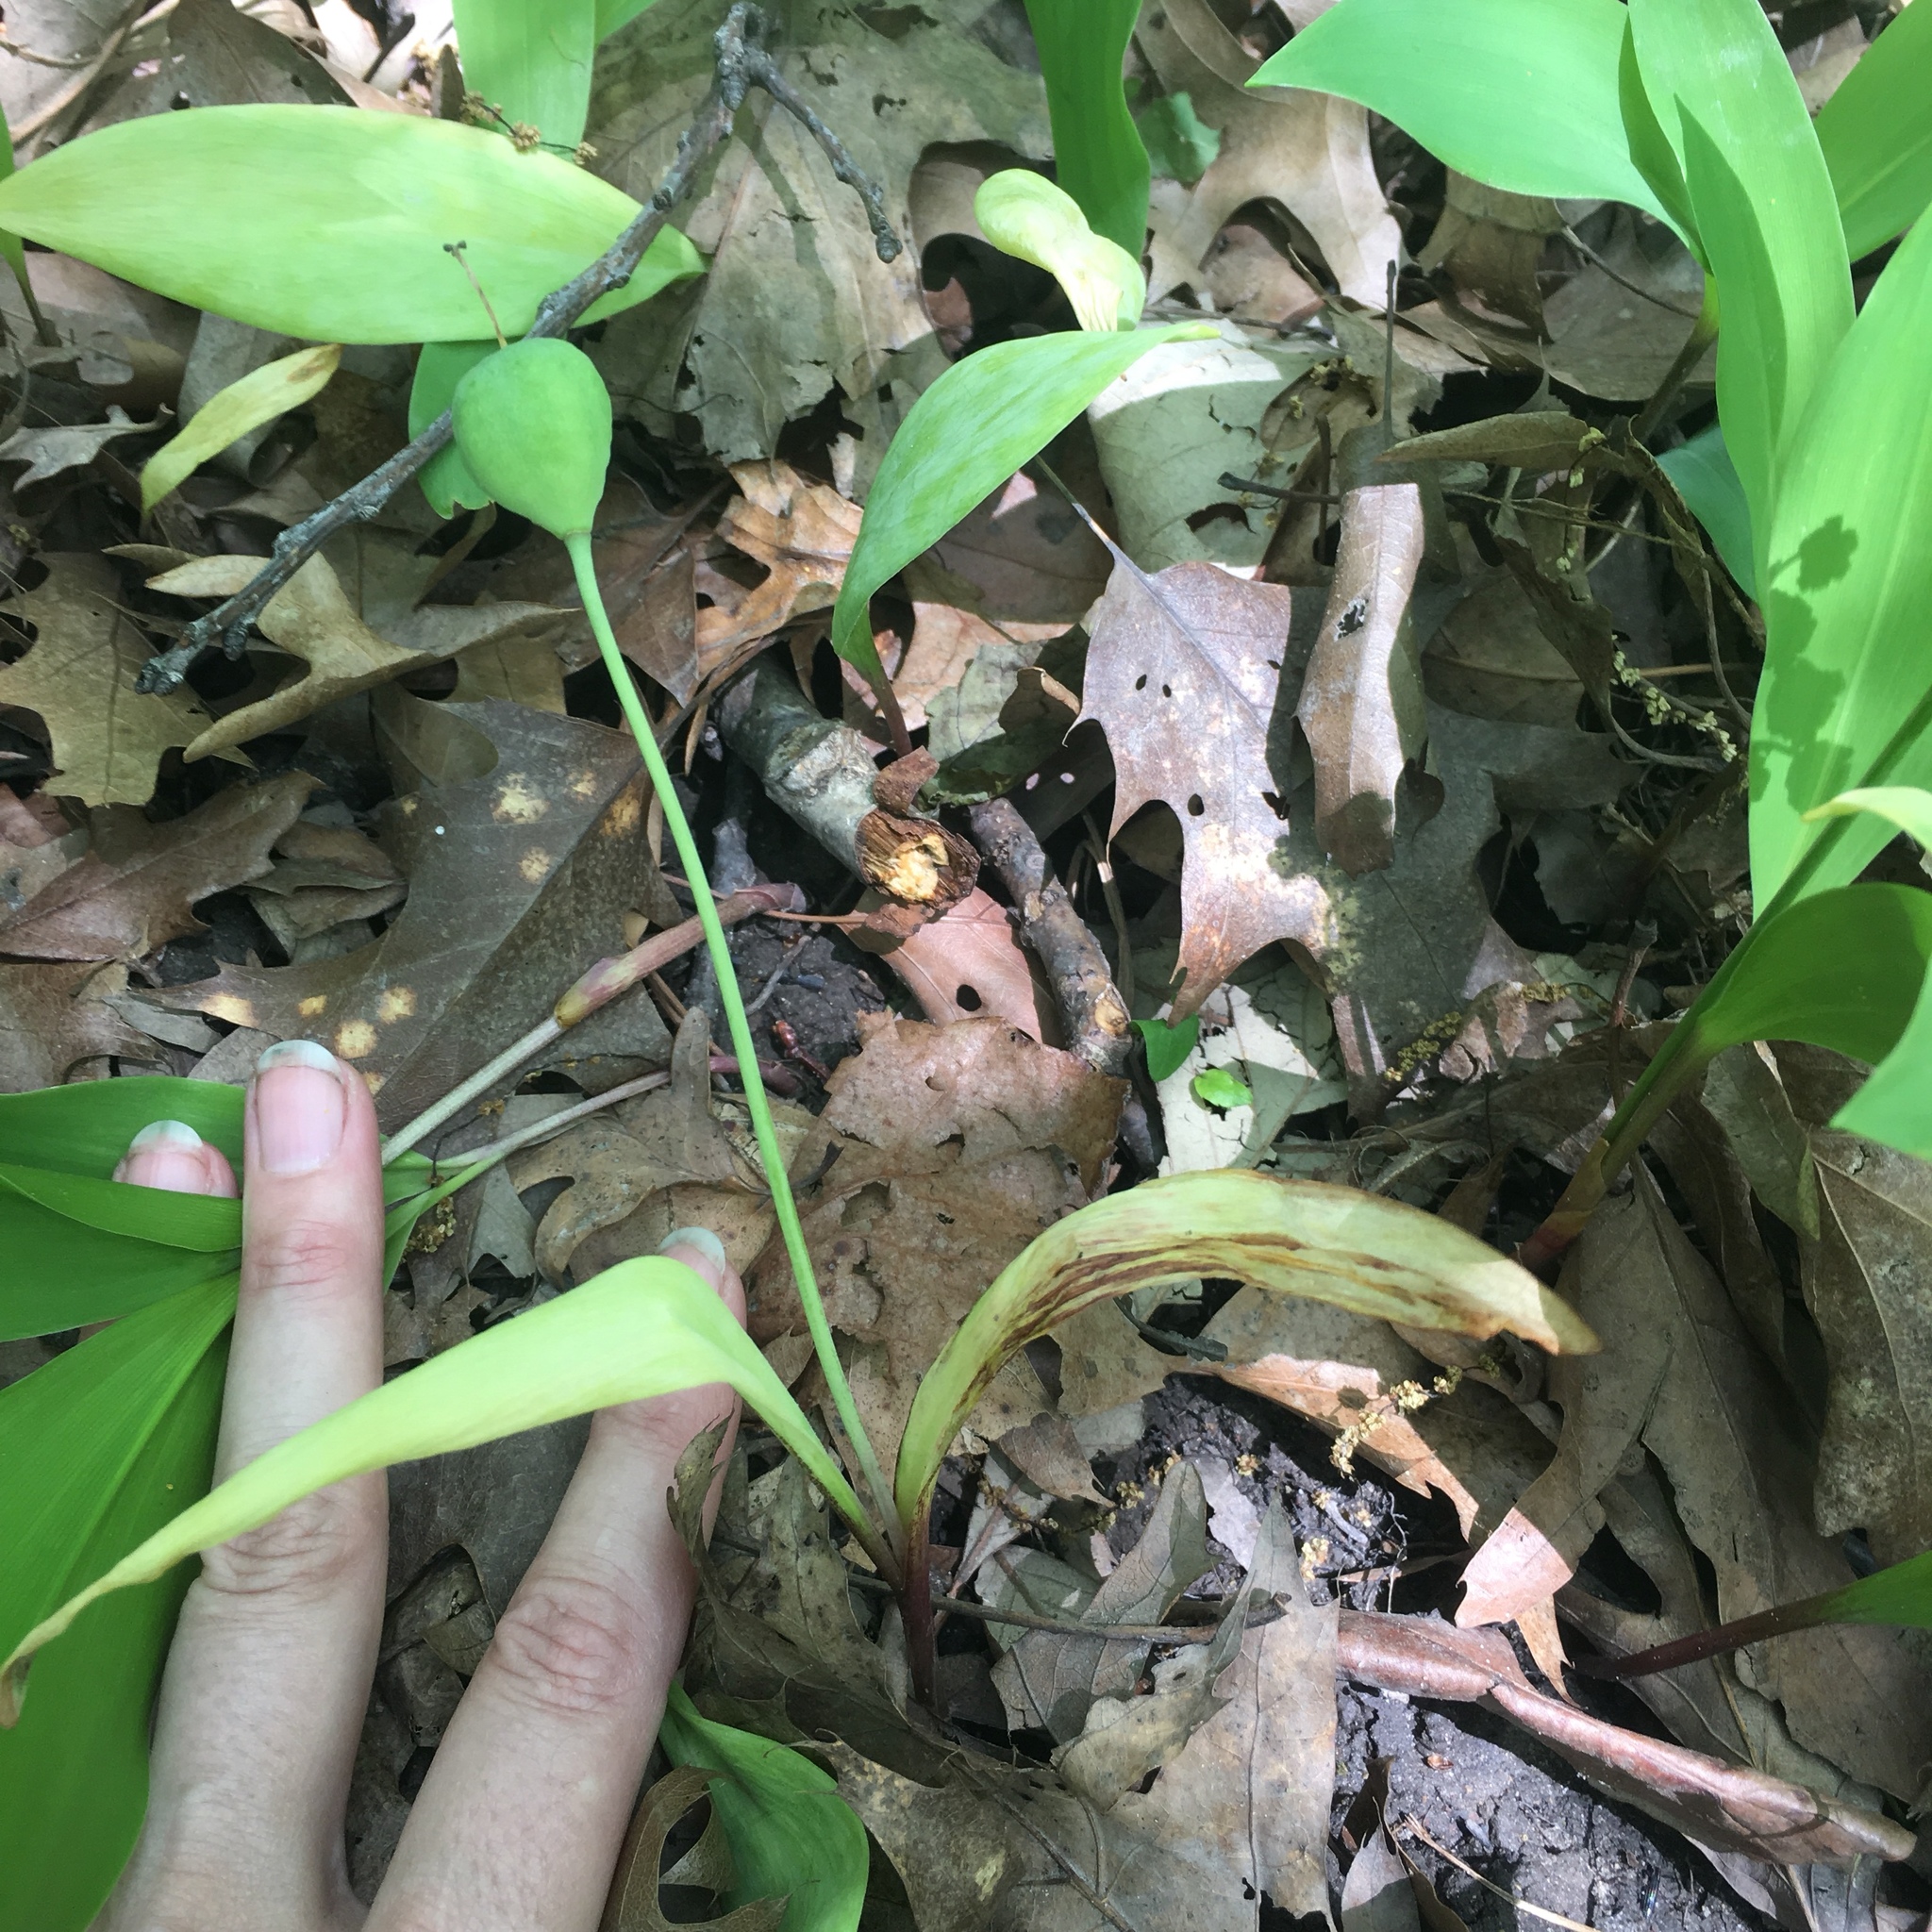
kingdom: Plantae
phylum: Tracheophyta
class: Liliopsida
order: Liliales
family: Liliaceae
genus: Erythronium
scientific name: Erythronium albidum
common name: White trout-lily
